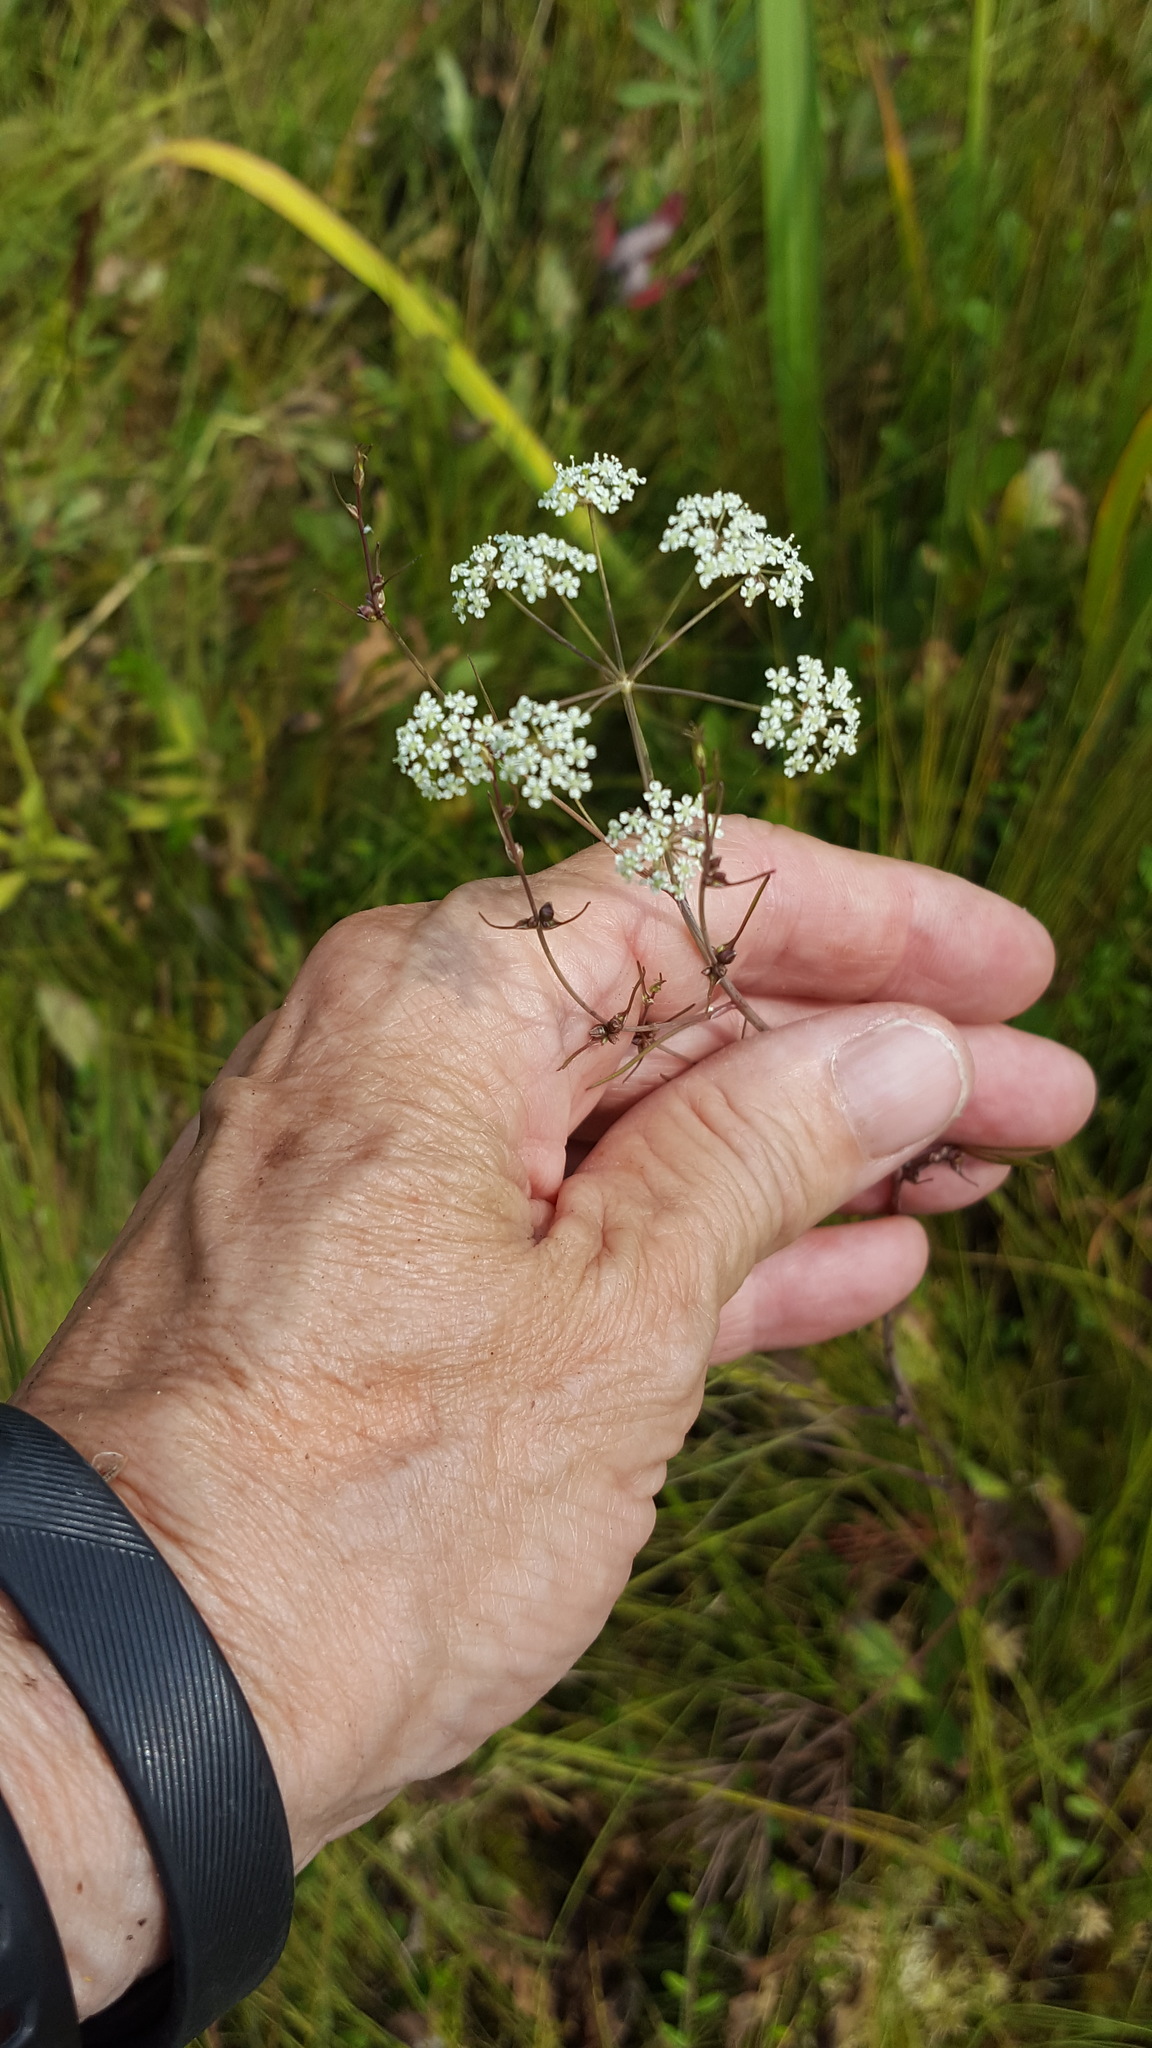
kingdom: Plantae
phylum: Tracheophyta
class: Magnoliopsida
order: Apiales
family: Apiaceae
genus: Cicuta
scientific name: Cicuta bulbifera
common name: Bulb-bearing water-hemlock
